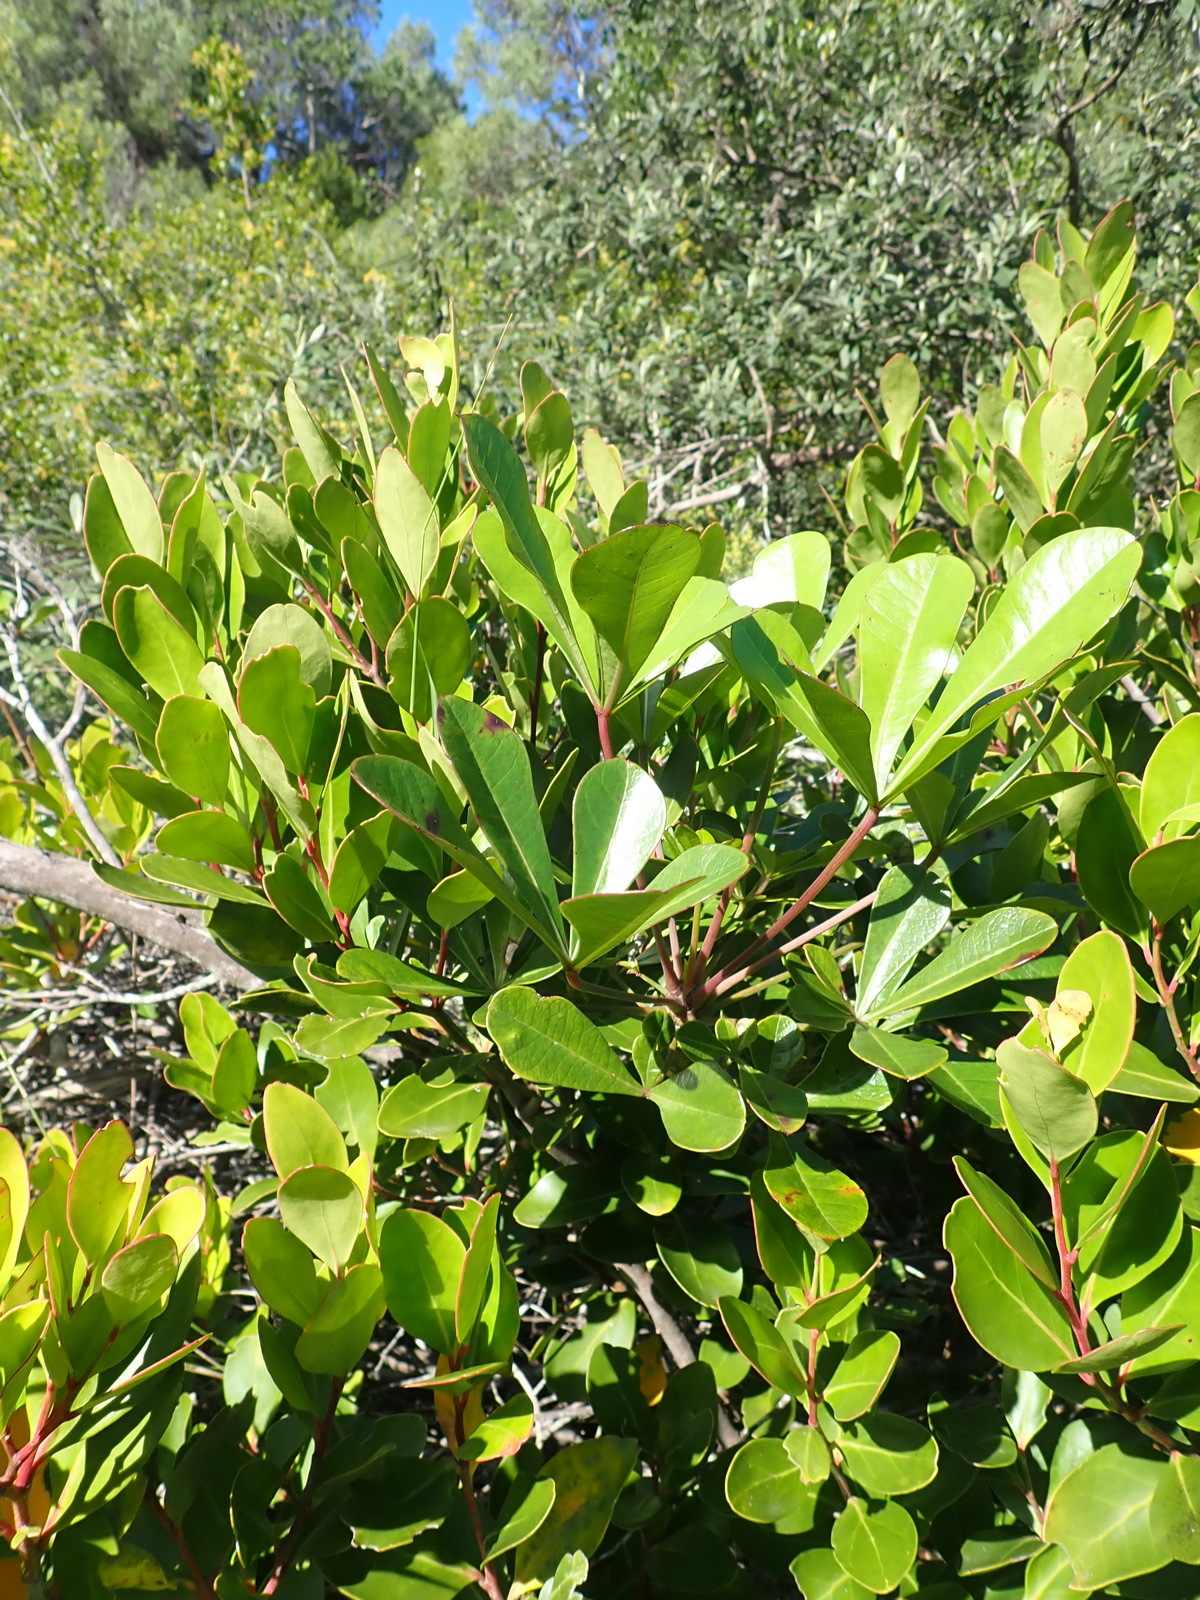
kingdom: Plantae
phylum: Tracheophyta
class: Magnoliopsida
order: Apiales
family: Araliaceae
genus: Cussonia
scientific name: Cussonia thyrsiflora
